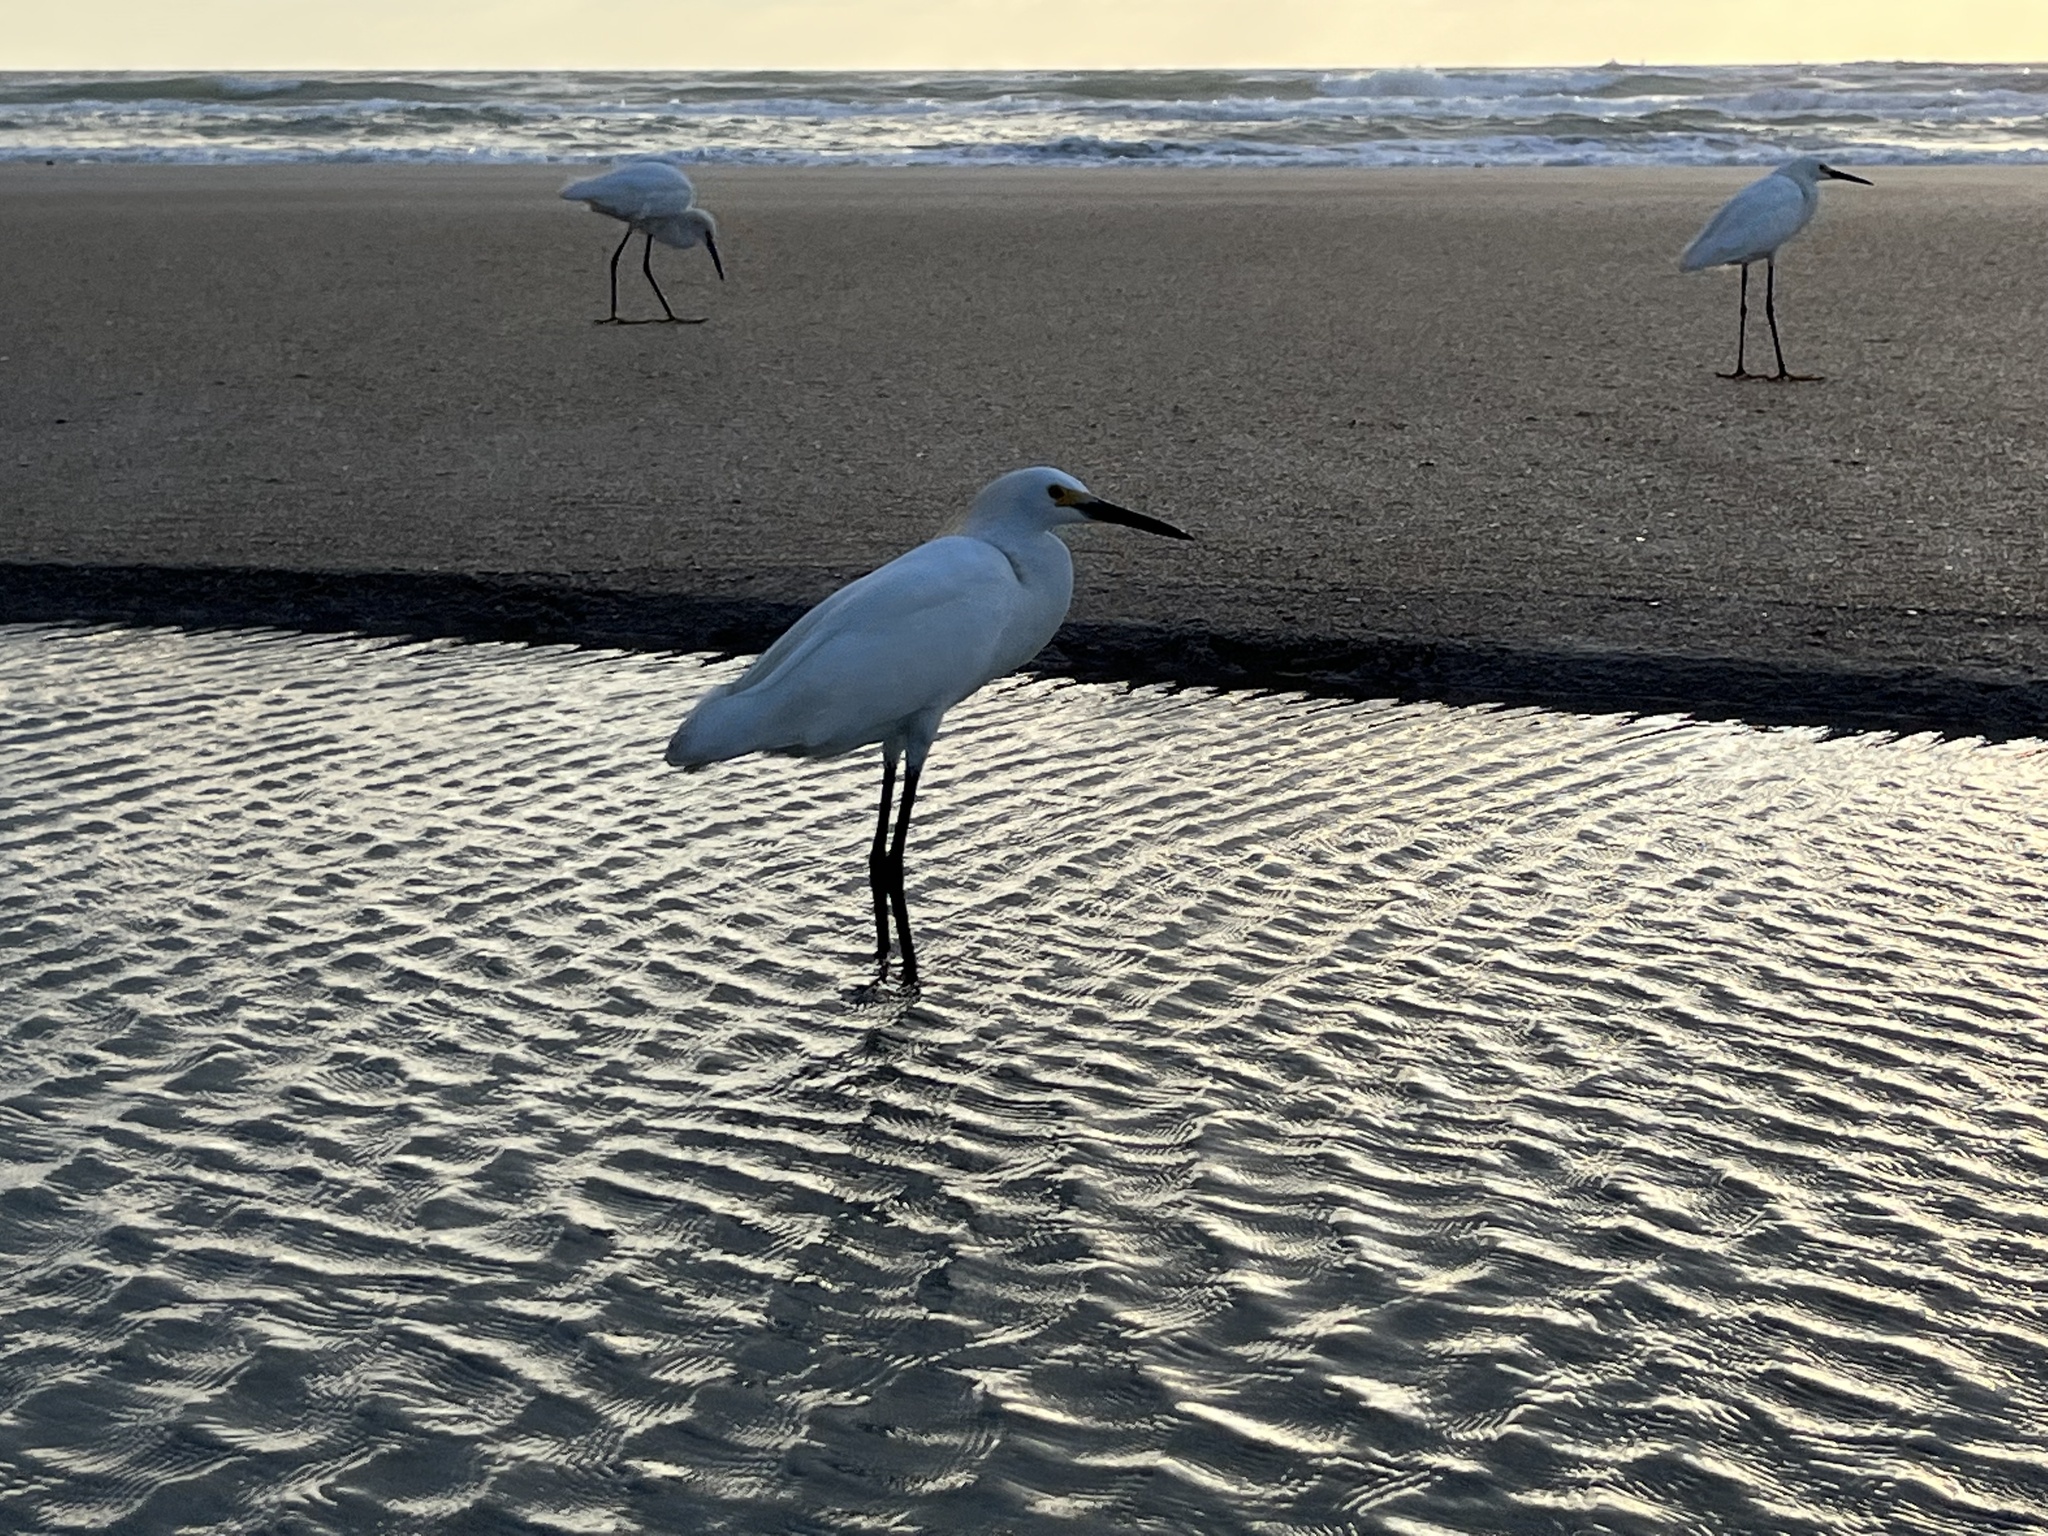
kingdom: Animalia
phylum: Chordata
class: Aves
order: Pelecaniformes
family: Ardeidae
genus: Egretta
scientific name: Egretta thula
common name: Snowy egret
